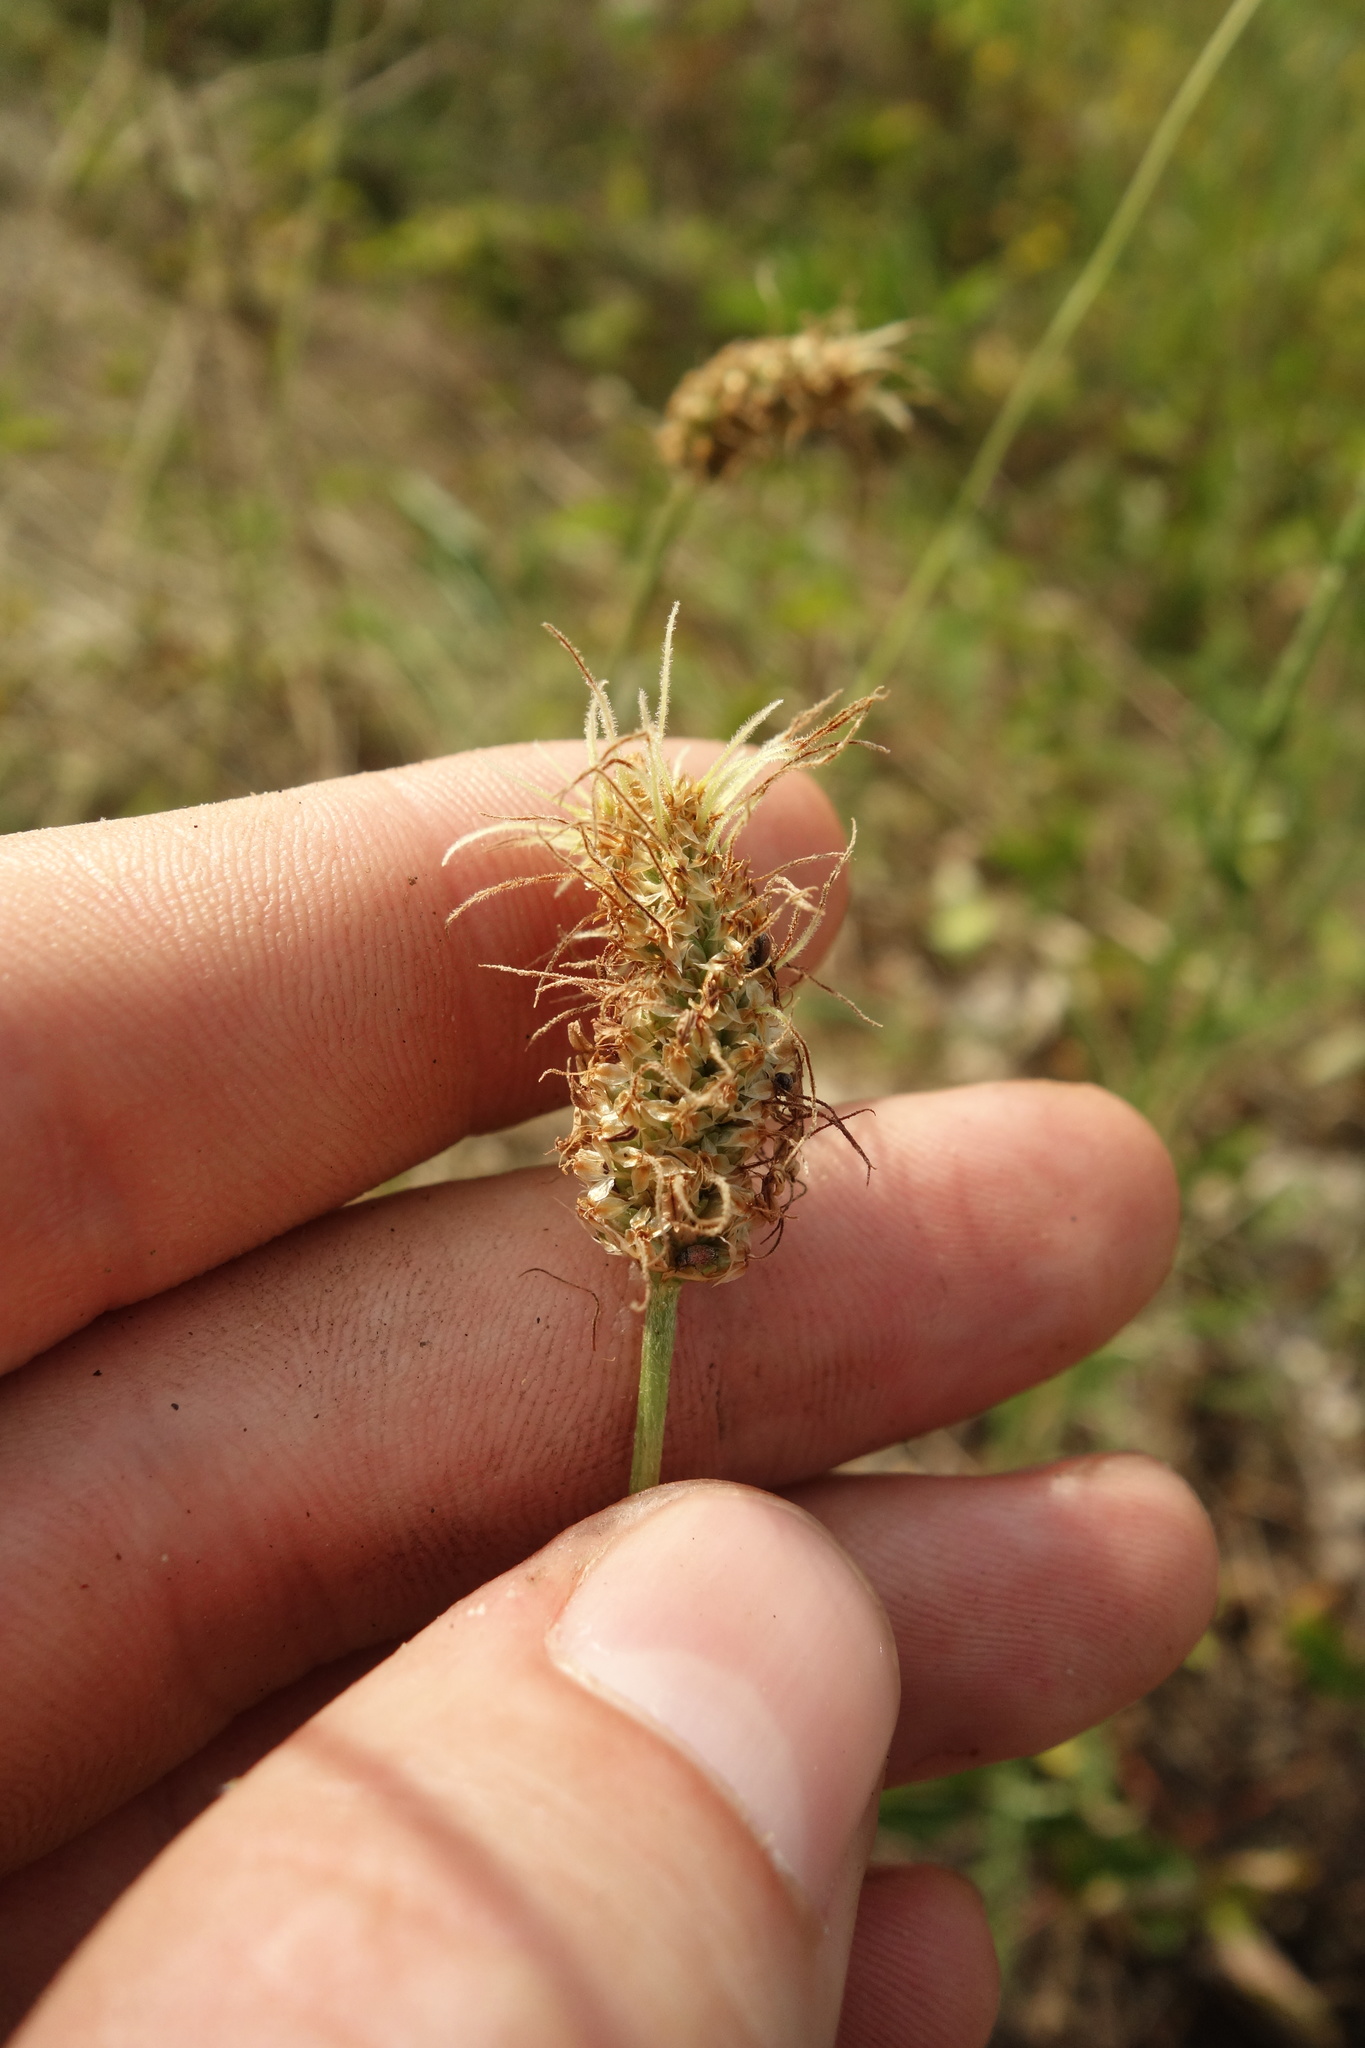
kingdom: Plantae
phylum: Tracheophyta
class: Magnoliopsida
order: Lamiales
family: Plantaginaceae
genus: Plantago
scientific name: Plantago lanceolata
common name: Ribwort plantain
